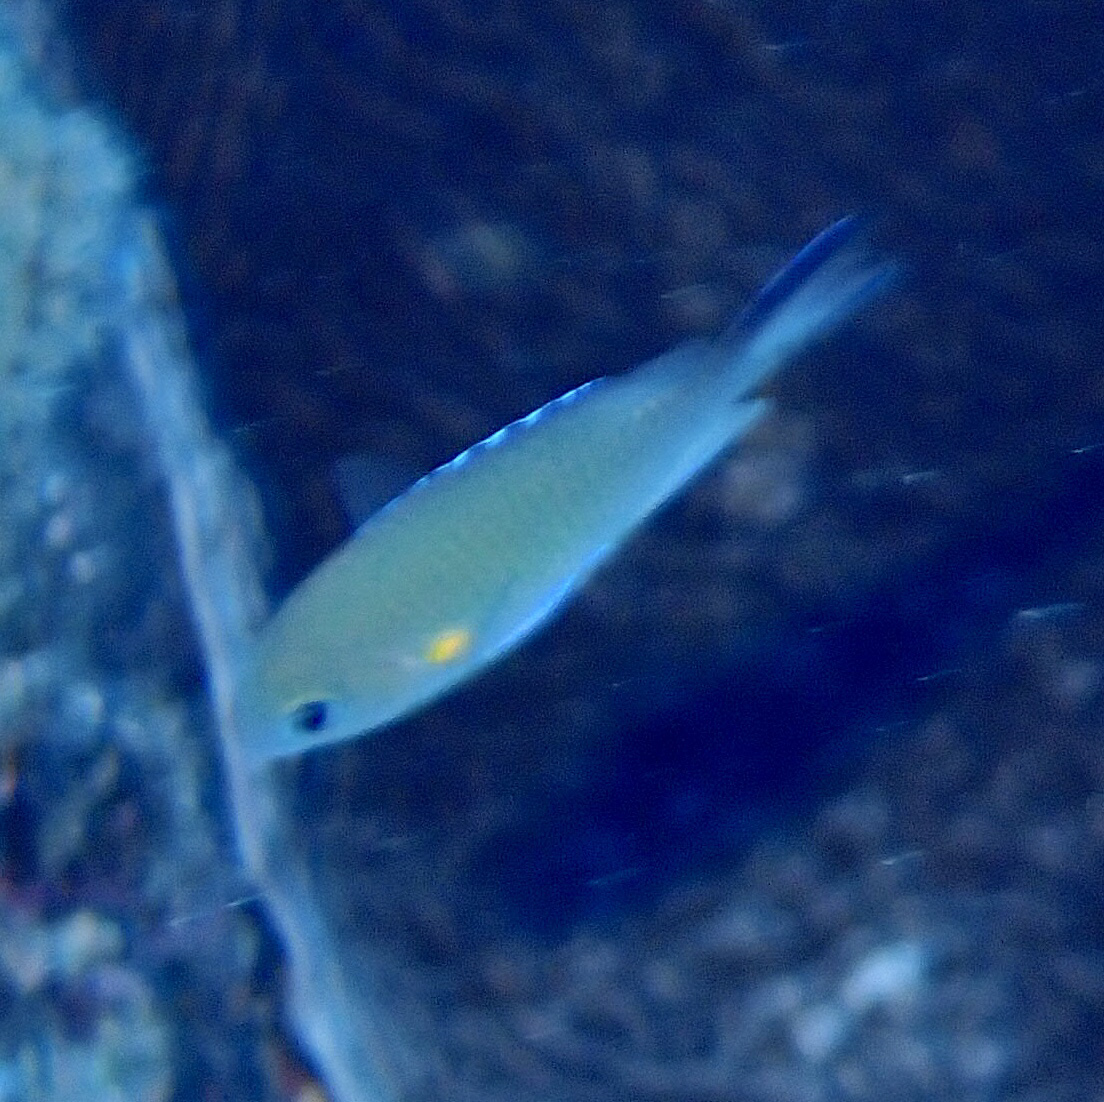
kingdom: Animalia
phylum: Chordata
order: Perciformes
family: Pomacentridae
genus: Chromis
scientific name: Chromis flavaxilla
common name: Arabian chromis
